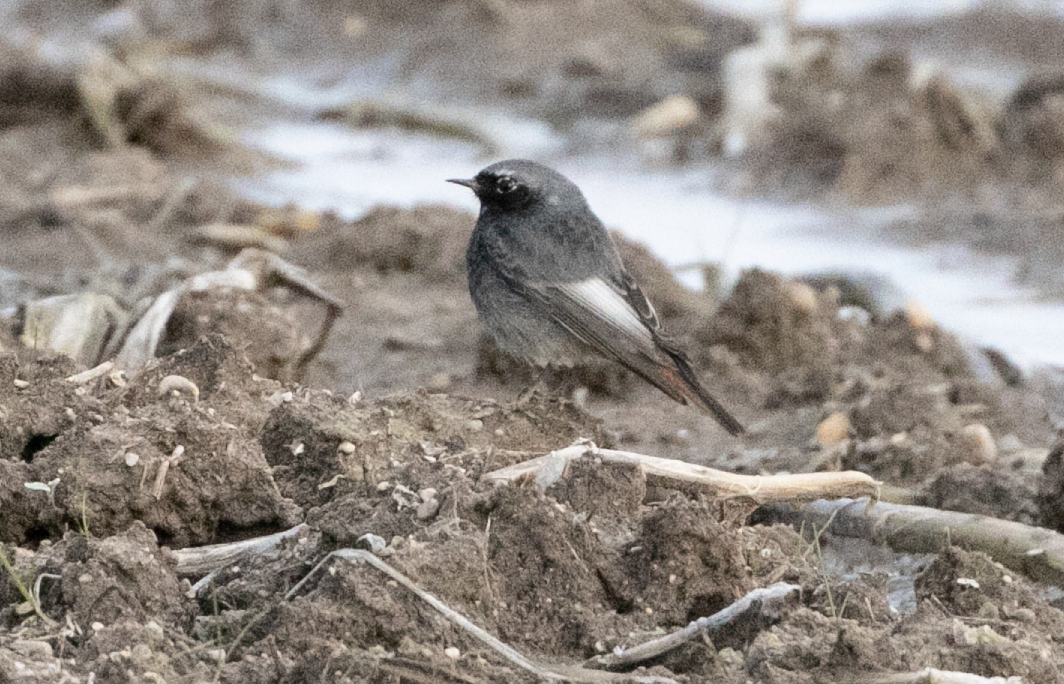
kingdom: Animalia
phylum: Chordata
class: Aves
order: Passeriformes
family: Muscicapidae
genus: Phoenicurus
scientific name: Phoenicurus ochruros
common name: Black redstart
